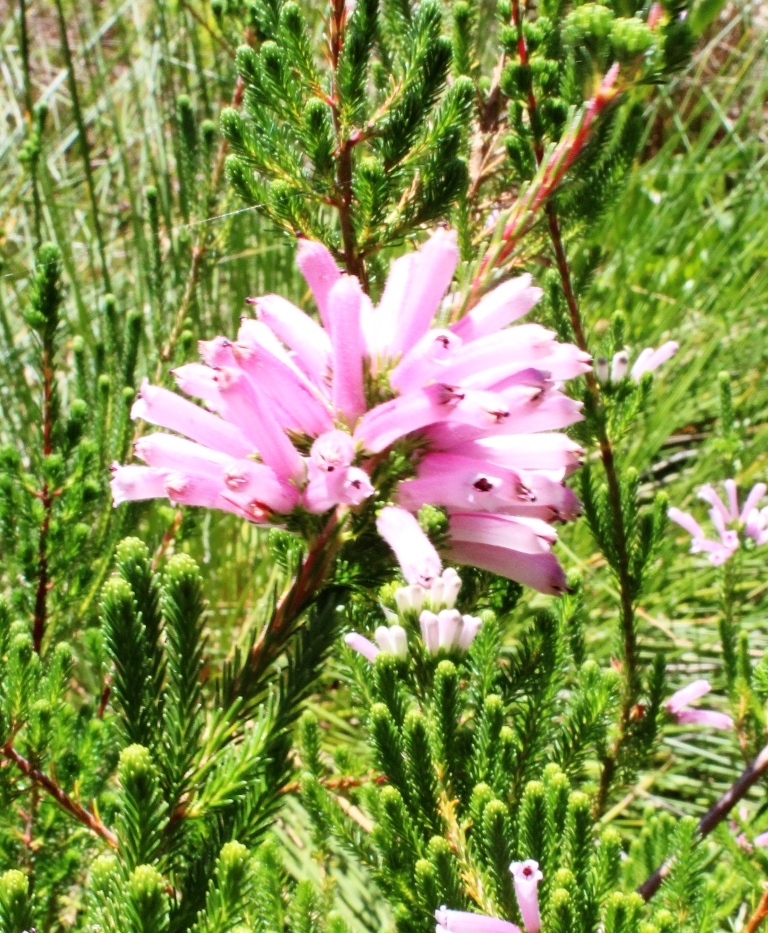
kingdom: Plantae
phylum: Tracheophyta
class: Magnoliopsida
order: Ericales
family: Ericaceae
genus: Erica
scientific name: Erica verticillata
